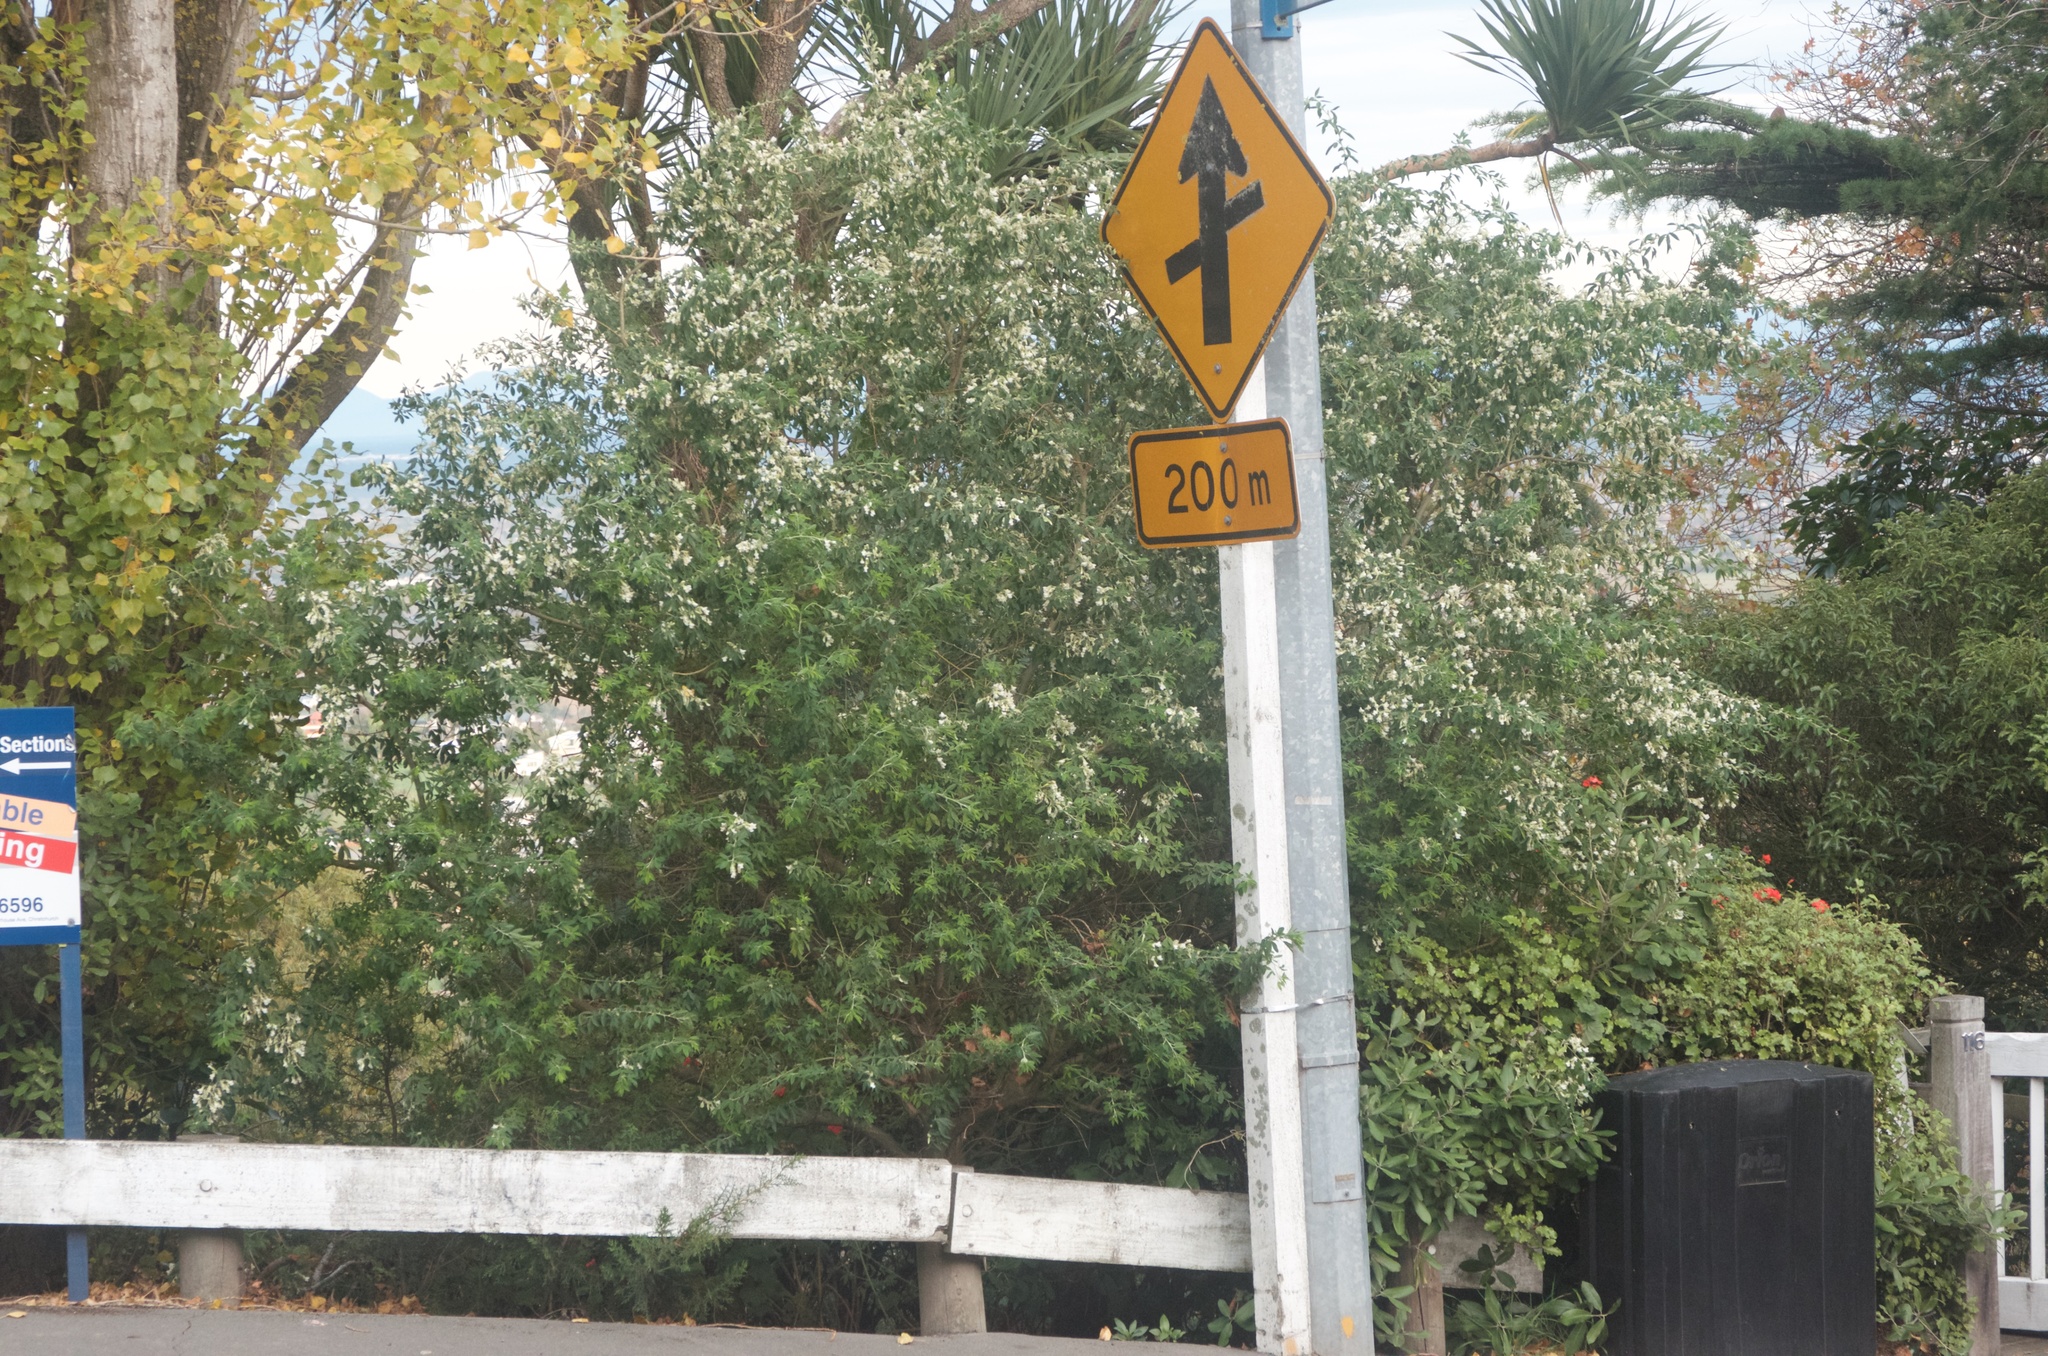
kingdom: Plantae
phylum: Tracheophyta
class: Magnoliopsida
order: Fabales
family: Fabaceae
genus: Chamaecytisus
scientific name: Chamaecytisus prolifer
